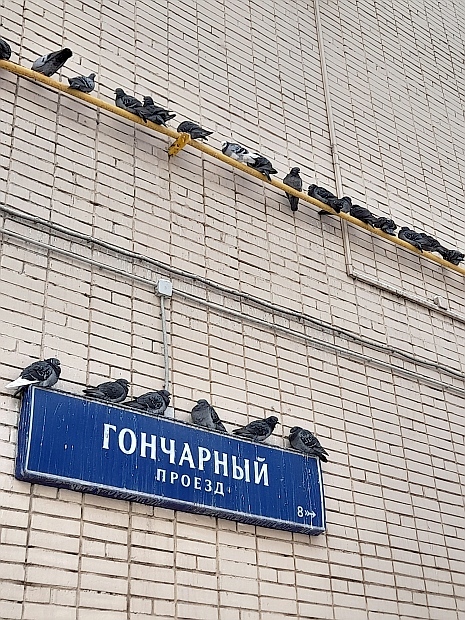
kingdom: Animalia
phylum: Chordata
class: Aves
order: Columbiformes
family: Columbidae
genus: Columba
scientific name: Columba livia
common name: Rock pigeon
